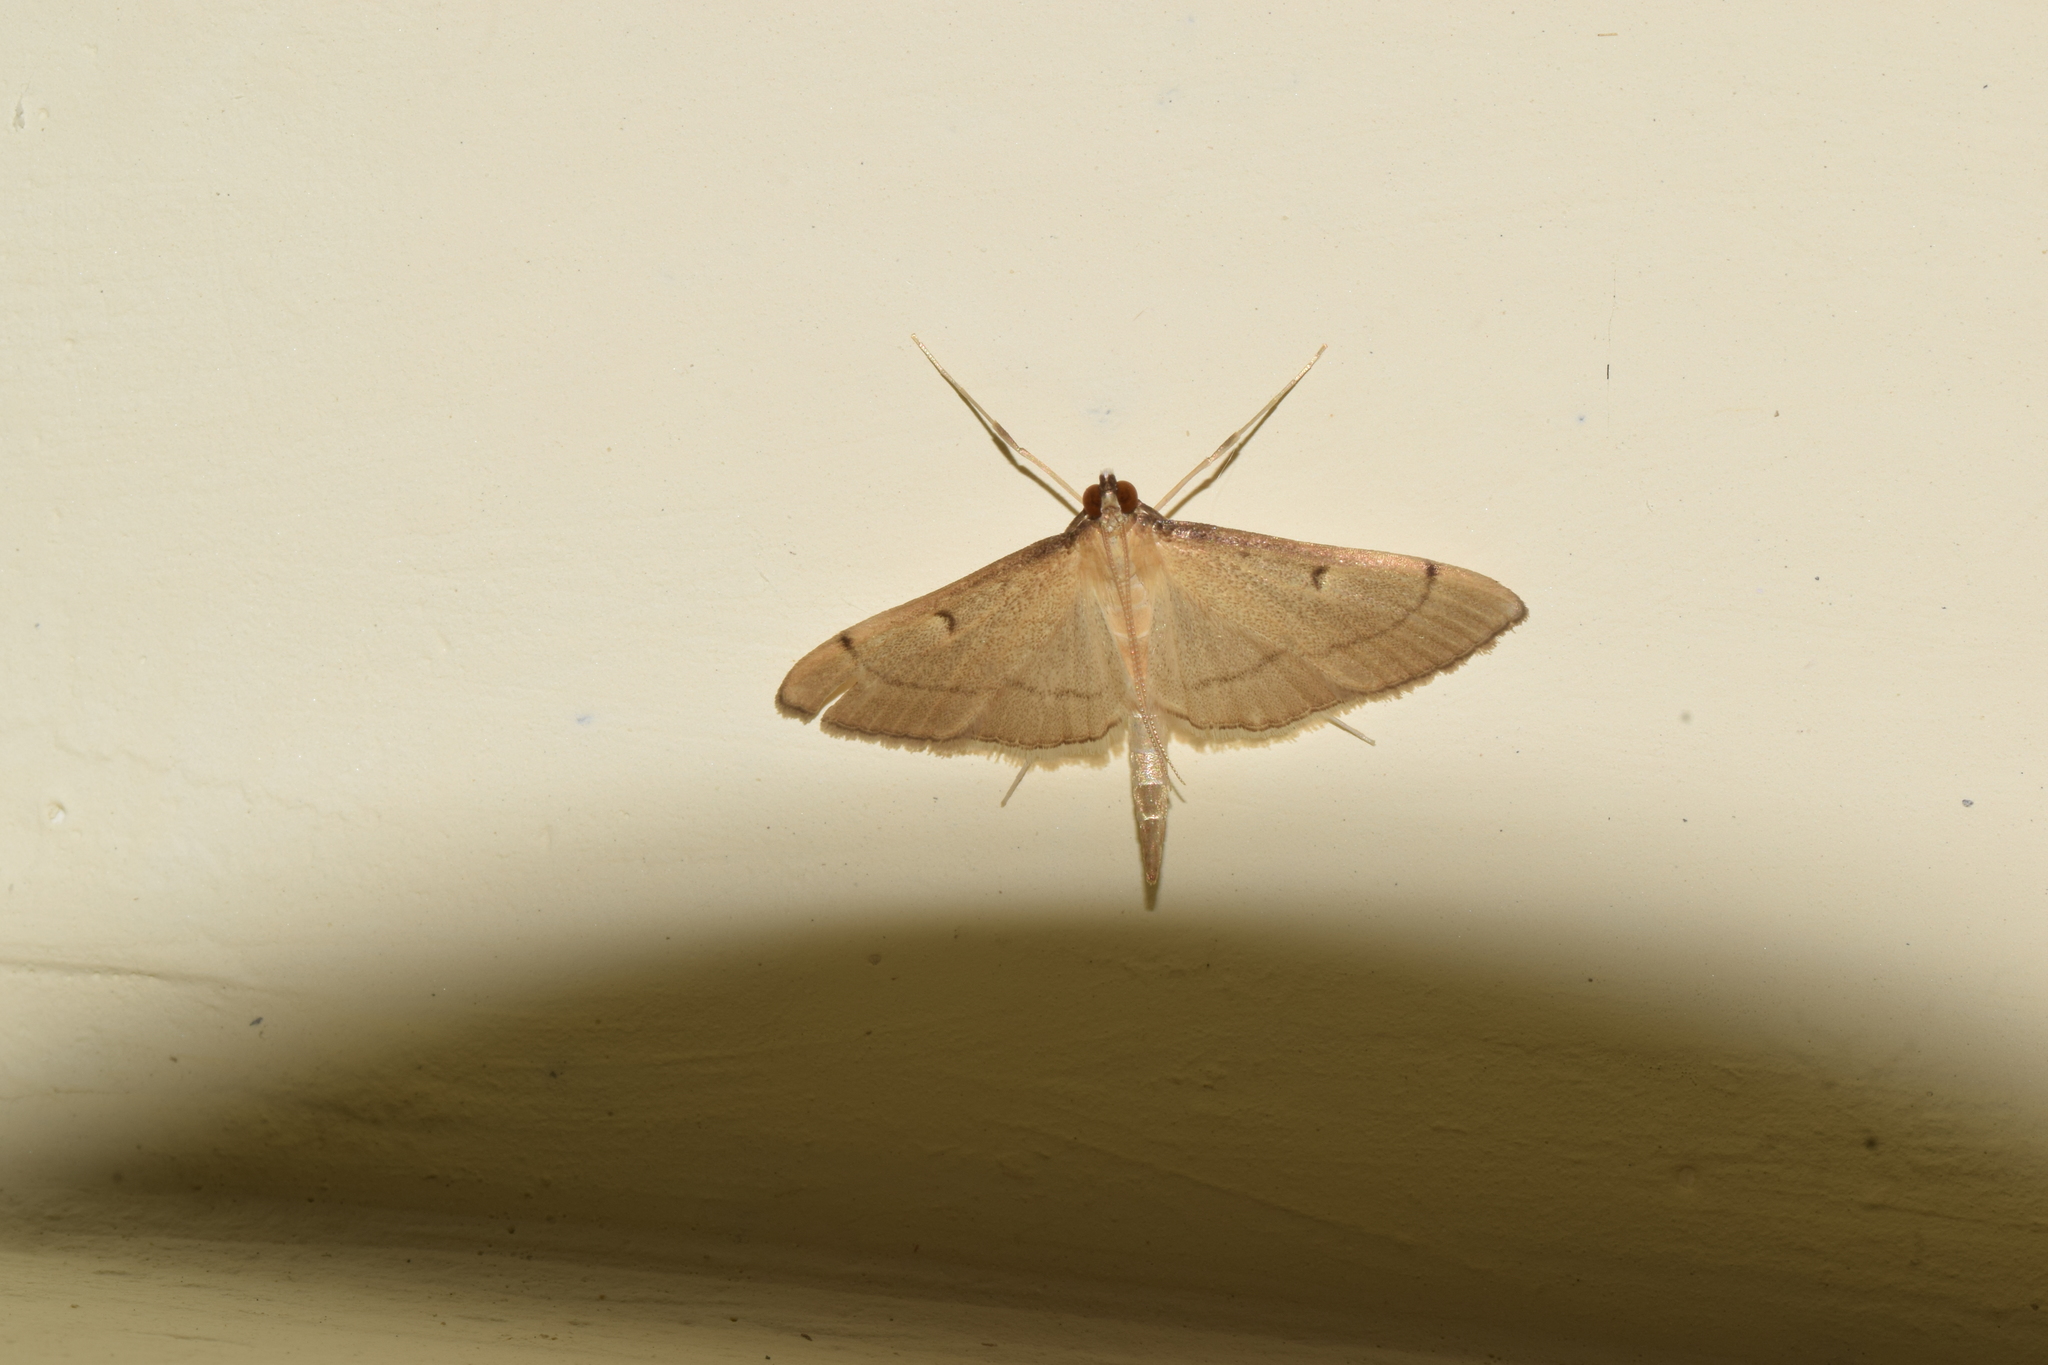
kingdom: Animalia
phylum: Arthropoda
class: Insecta
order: Lepidoptera
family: Crambidae
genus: Bradina
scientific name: Bradina admixtalis
